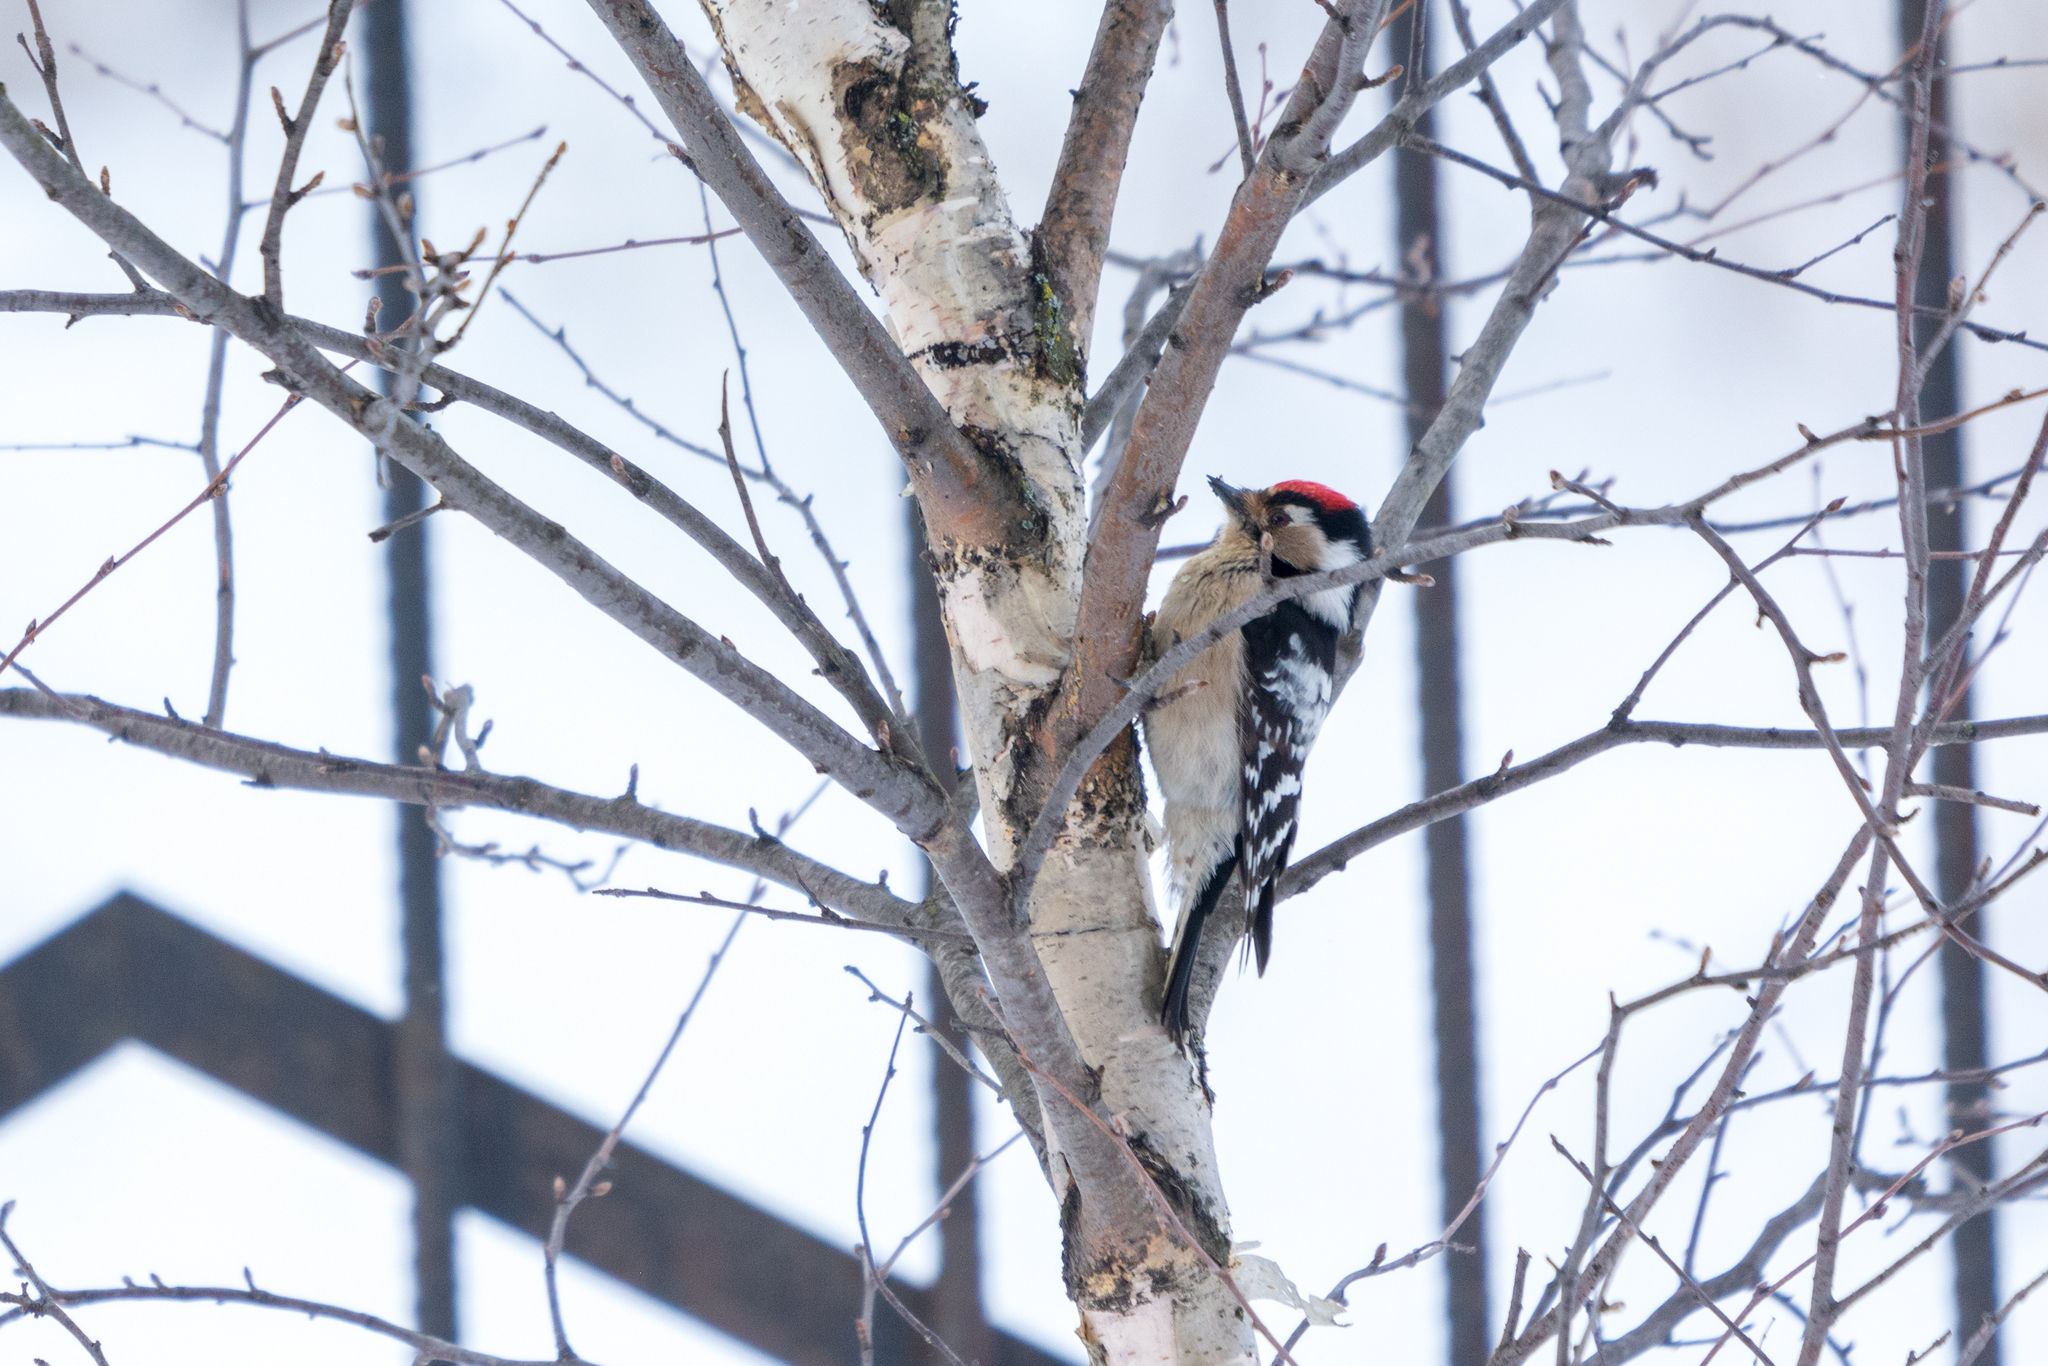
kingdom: Animalia
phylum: Chordata
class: Aves
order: Piciformes
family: Picidae
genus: Dryobates
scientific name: Dryobates minor
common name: Lesser spotted woodpecker
